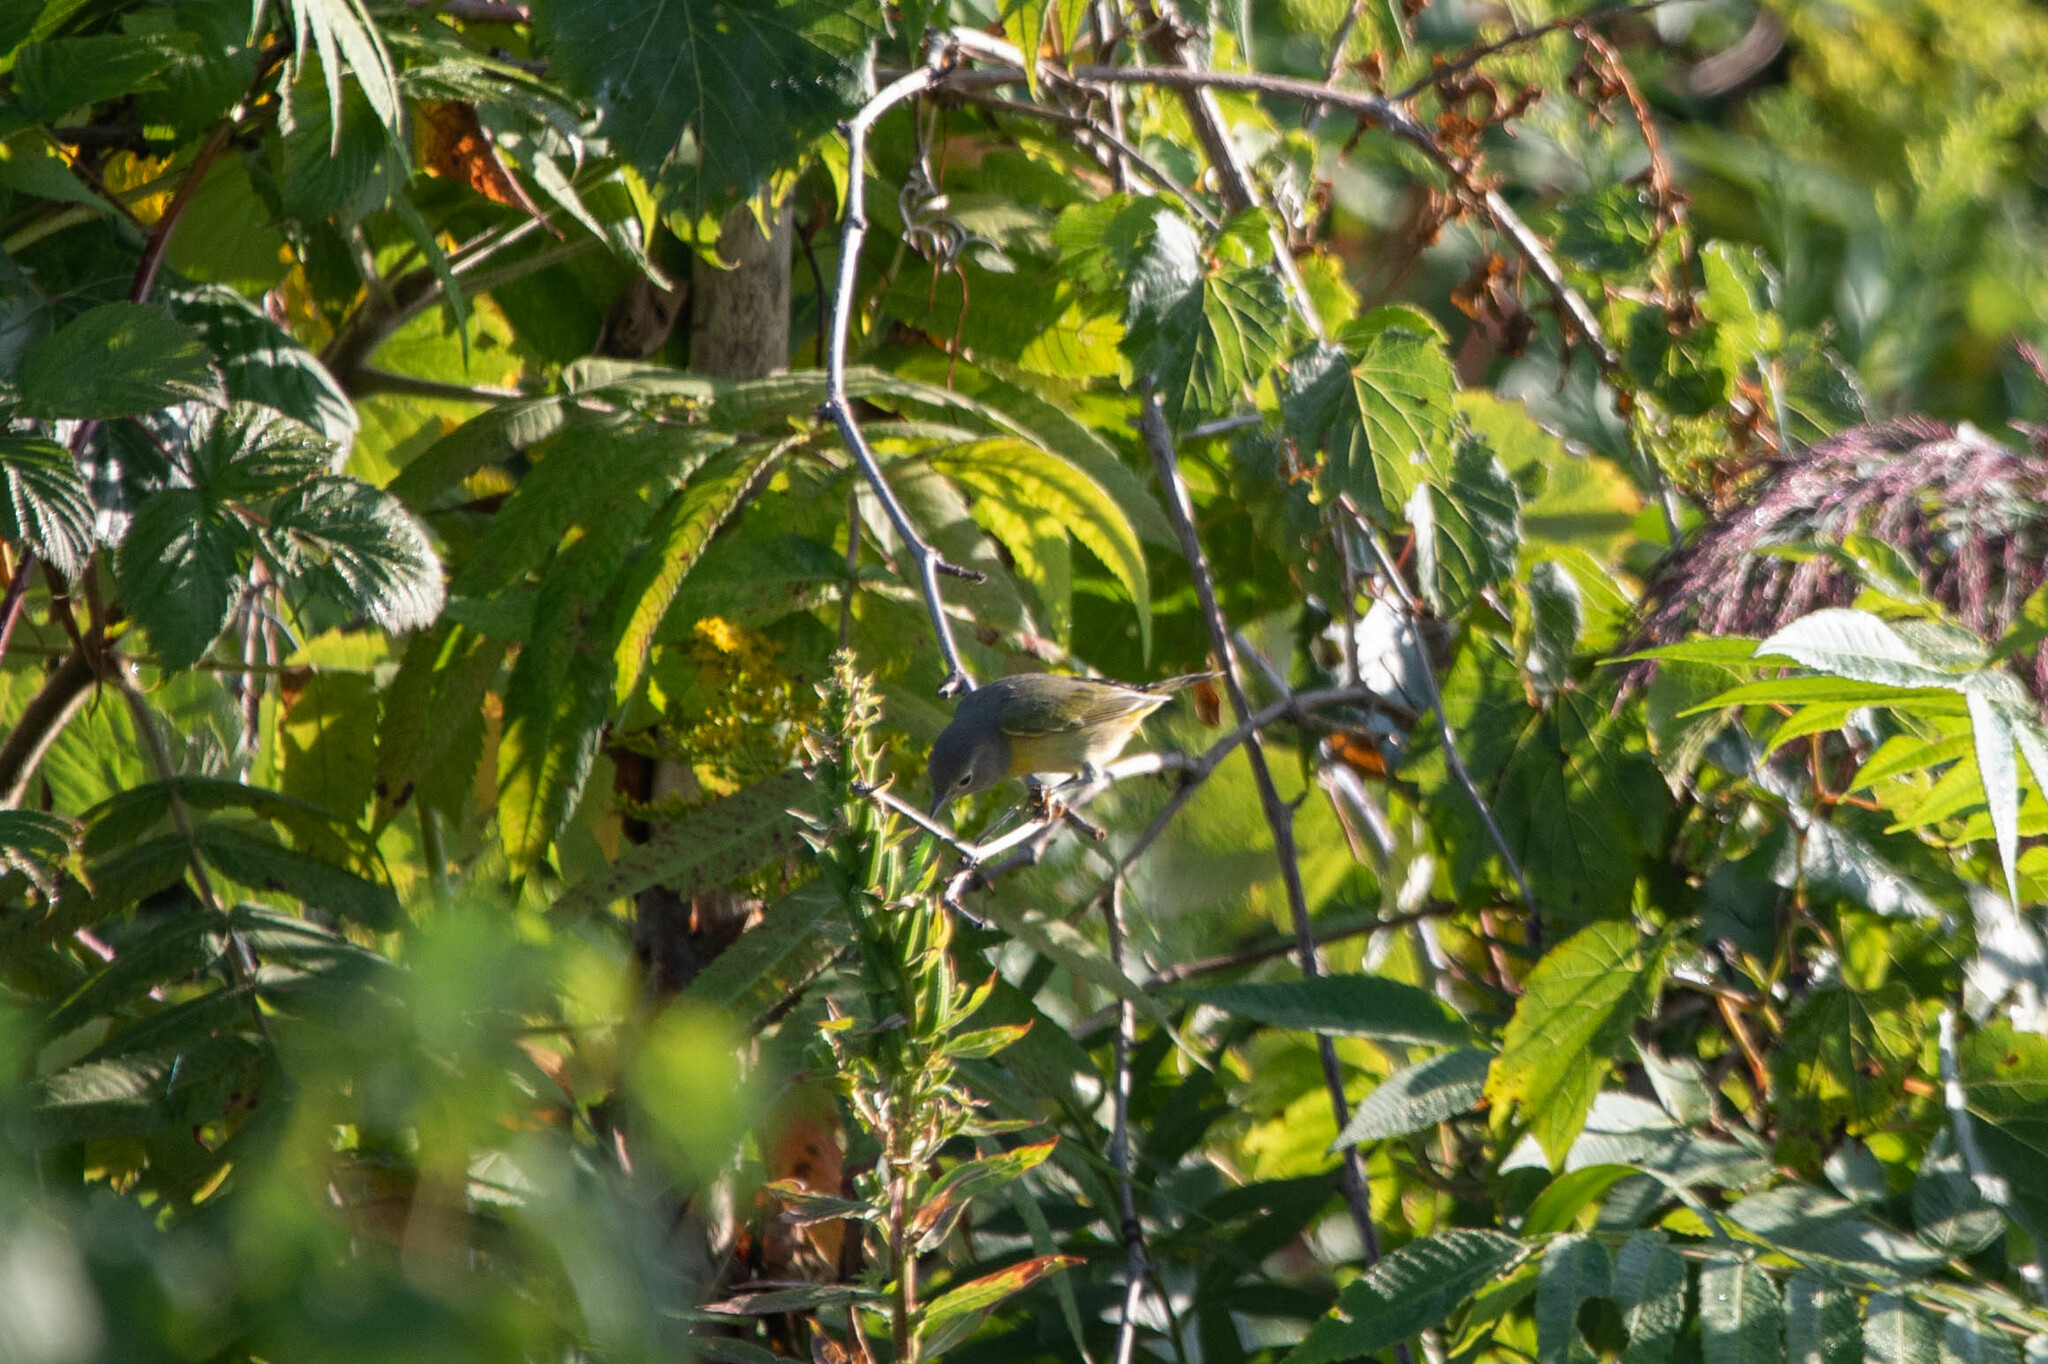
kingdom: Animalia
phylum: Chordata
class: Aves
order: Passeriformes
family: Parulidae
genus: Leiothlypis
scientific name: Leiothlypis ruficapilla
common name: Nashville warbler
